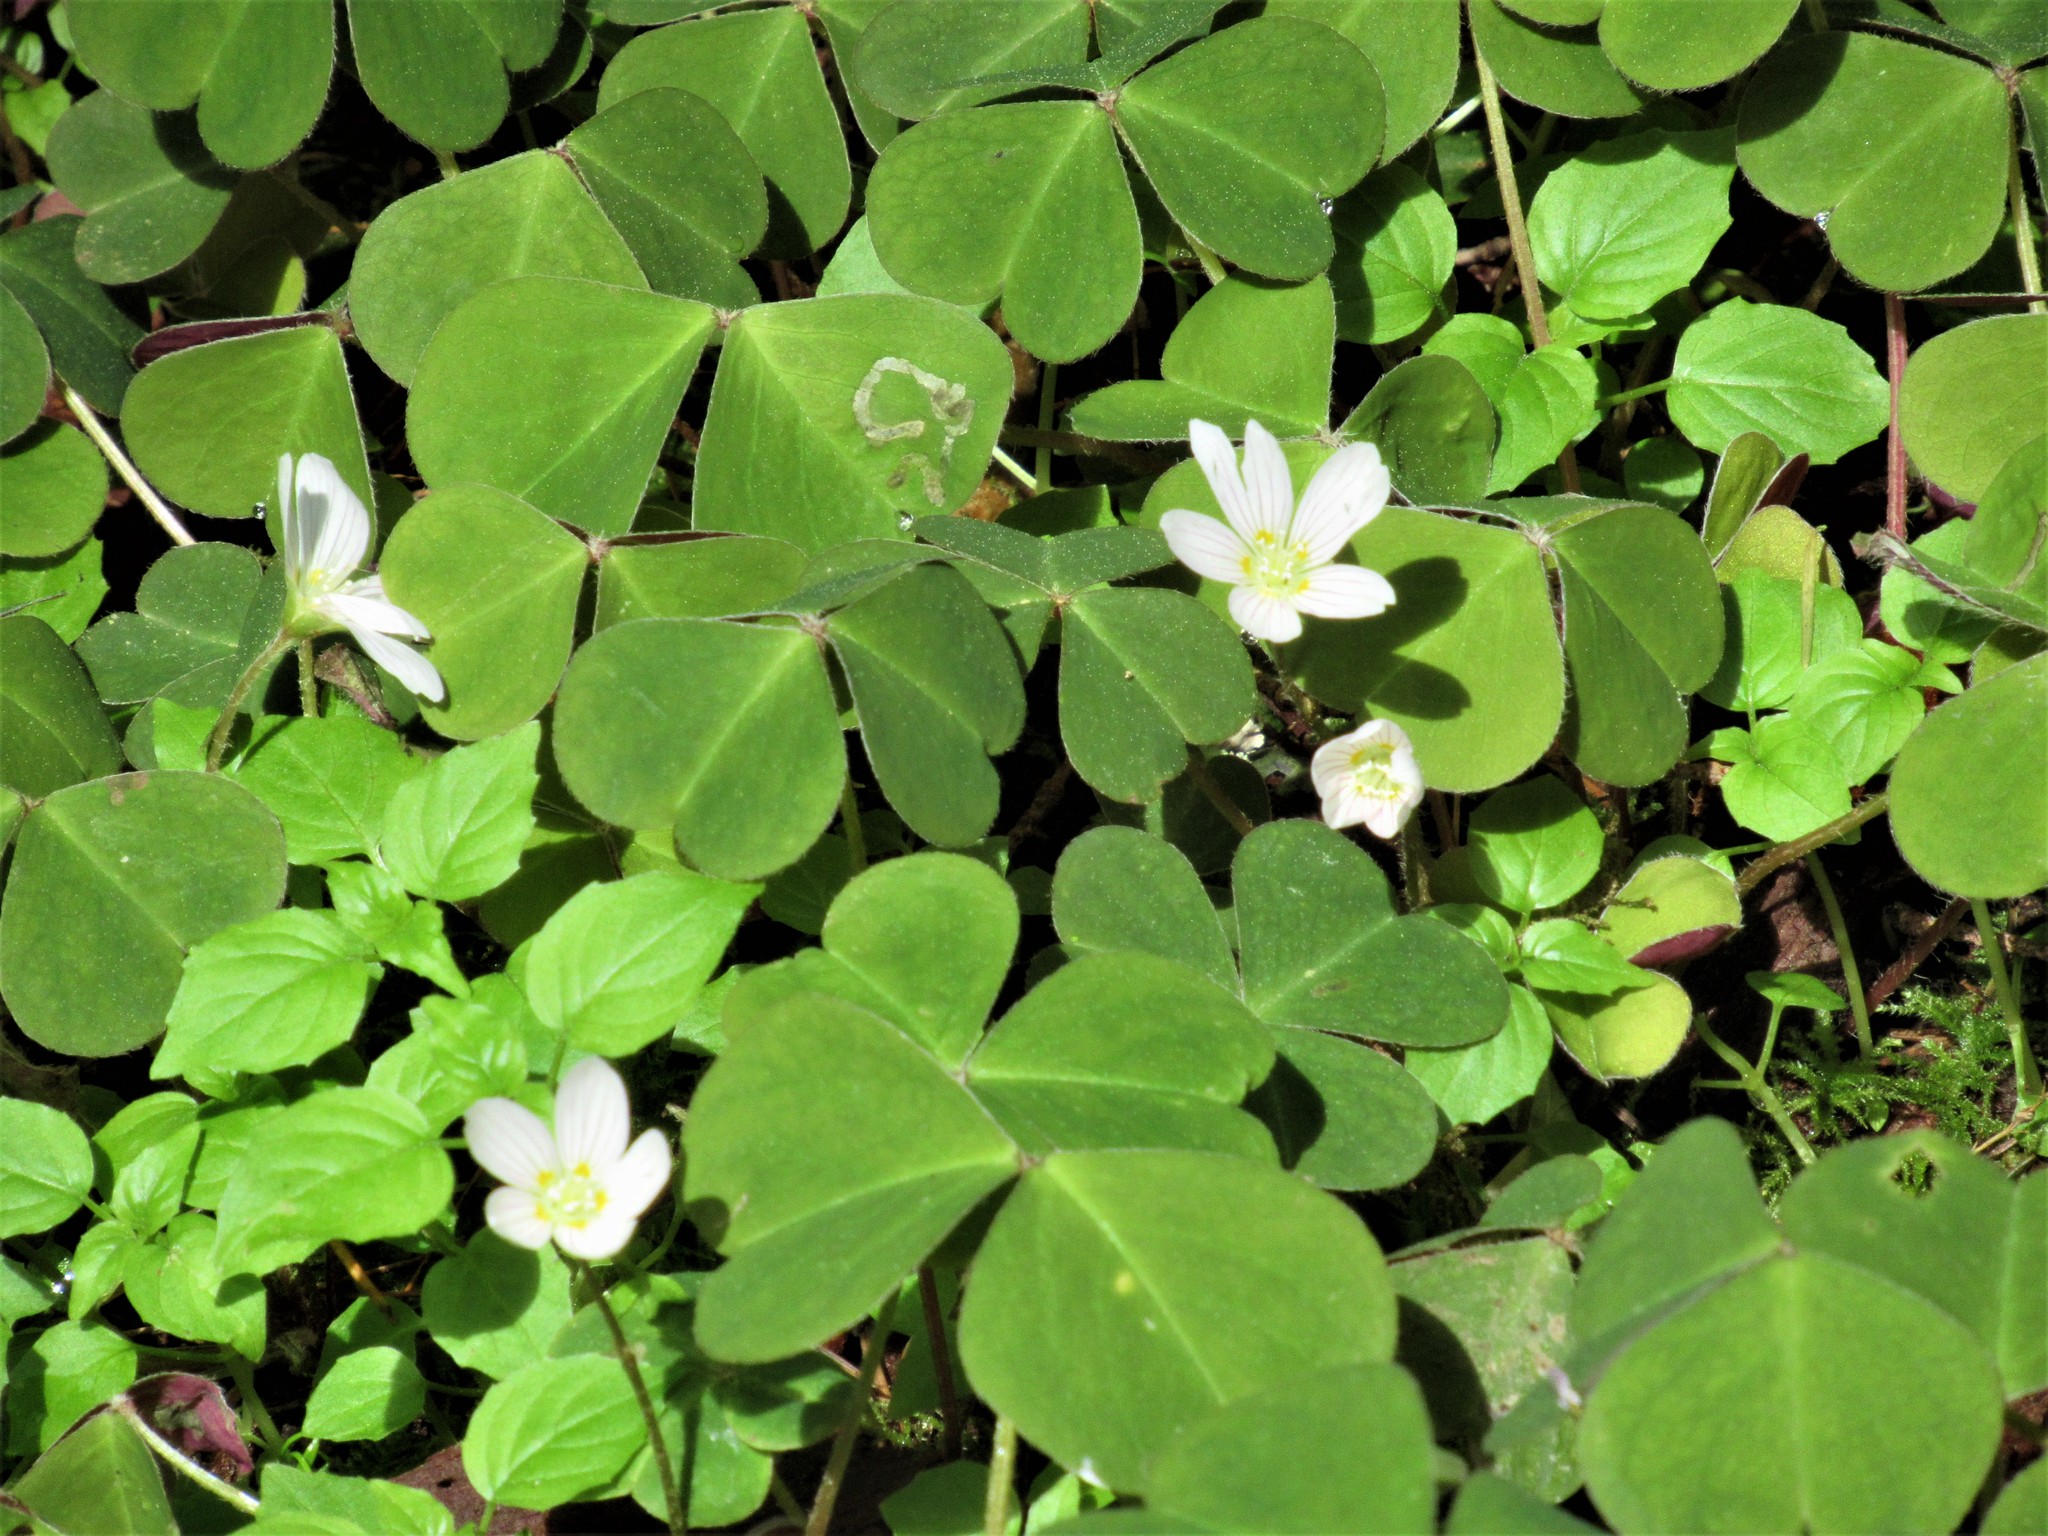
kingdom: Plantae
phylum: Tracheophyta
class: Magnoliopsida
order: Oxalidales
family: Oxalidaceae
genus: Oxalis
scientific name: Oxalis oregana
